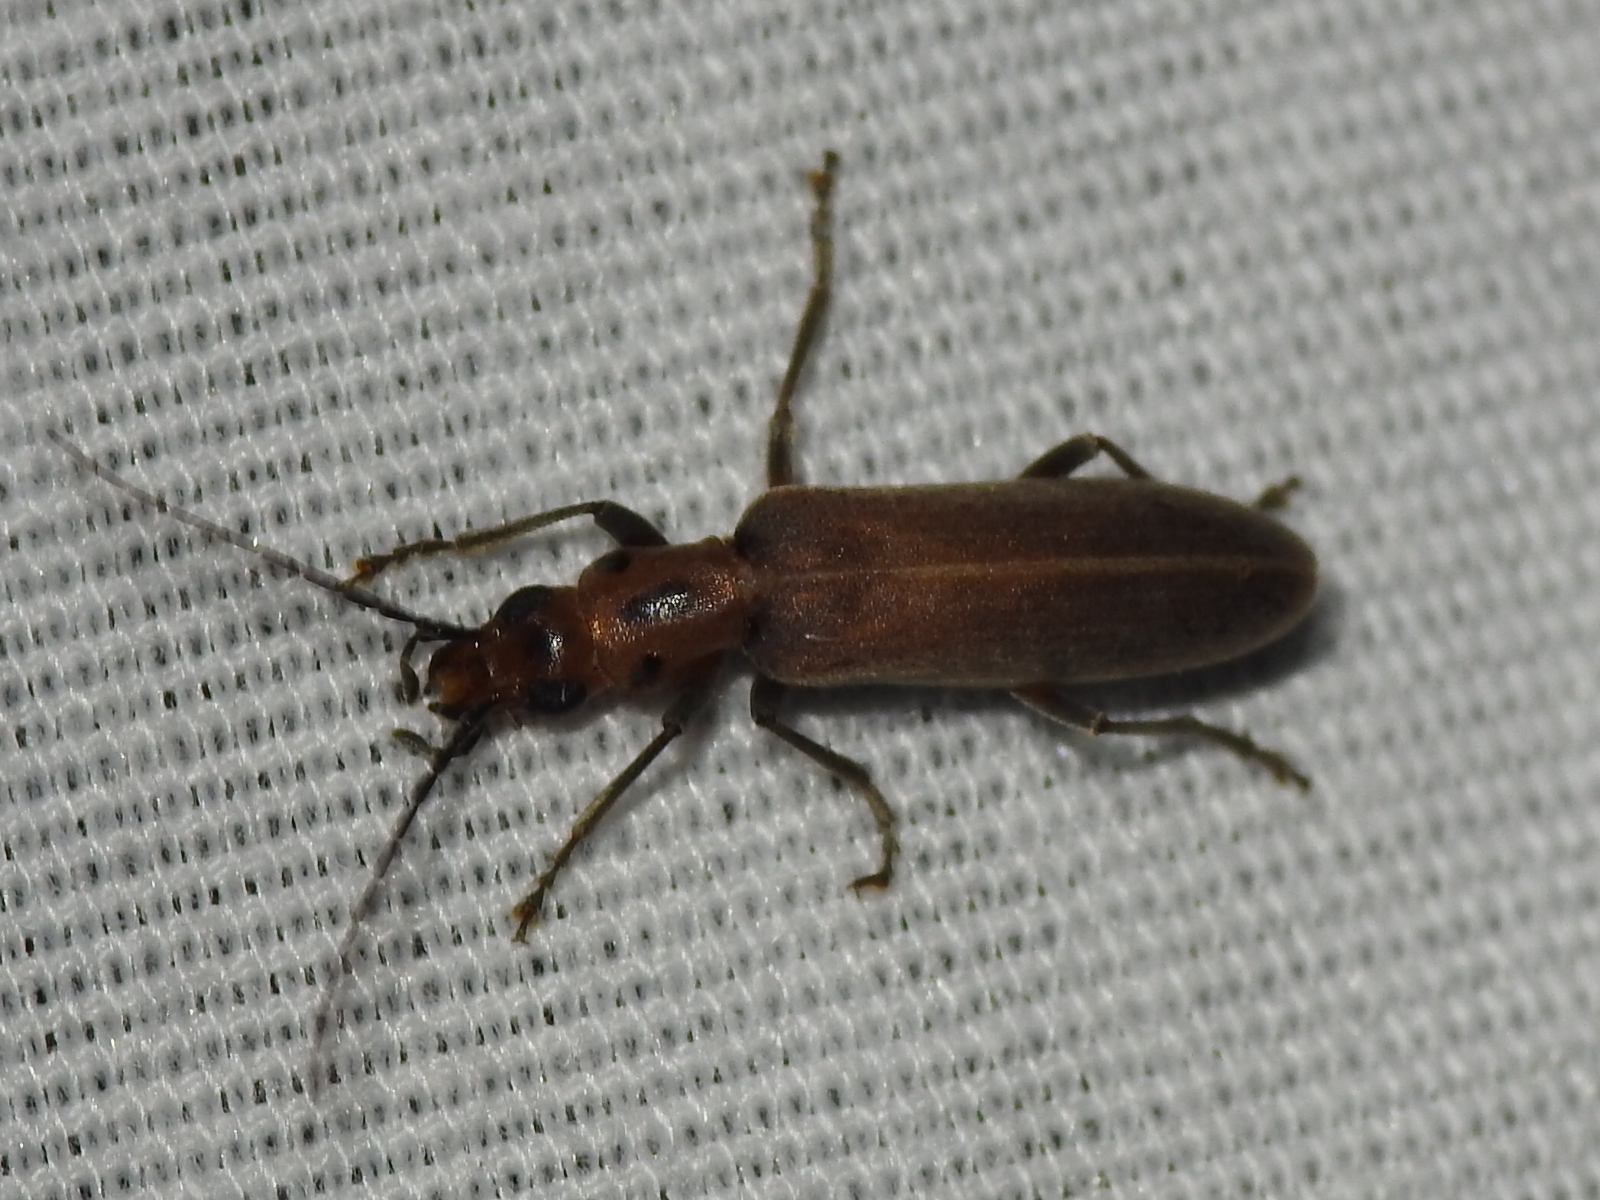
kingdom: Animalia
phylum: Arthropoda
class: Insecta
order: Coleoptera
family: Oedemeridae
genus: Oxacis
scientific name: Oxacis trimaculata
